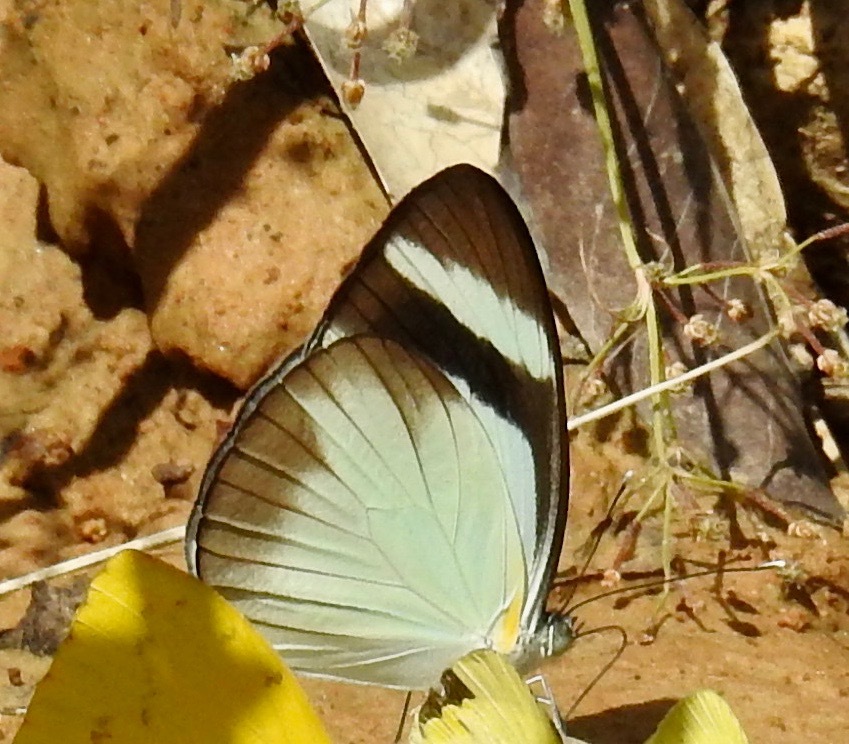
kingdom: Animalia
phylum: Arthropoda
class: Insecta
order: Lepidoptera
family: Pieridae
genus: Itaballia
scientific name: Itaballia demophile
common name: Cross-barred white
